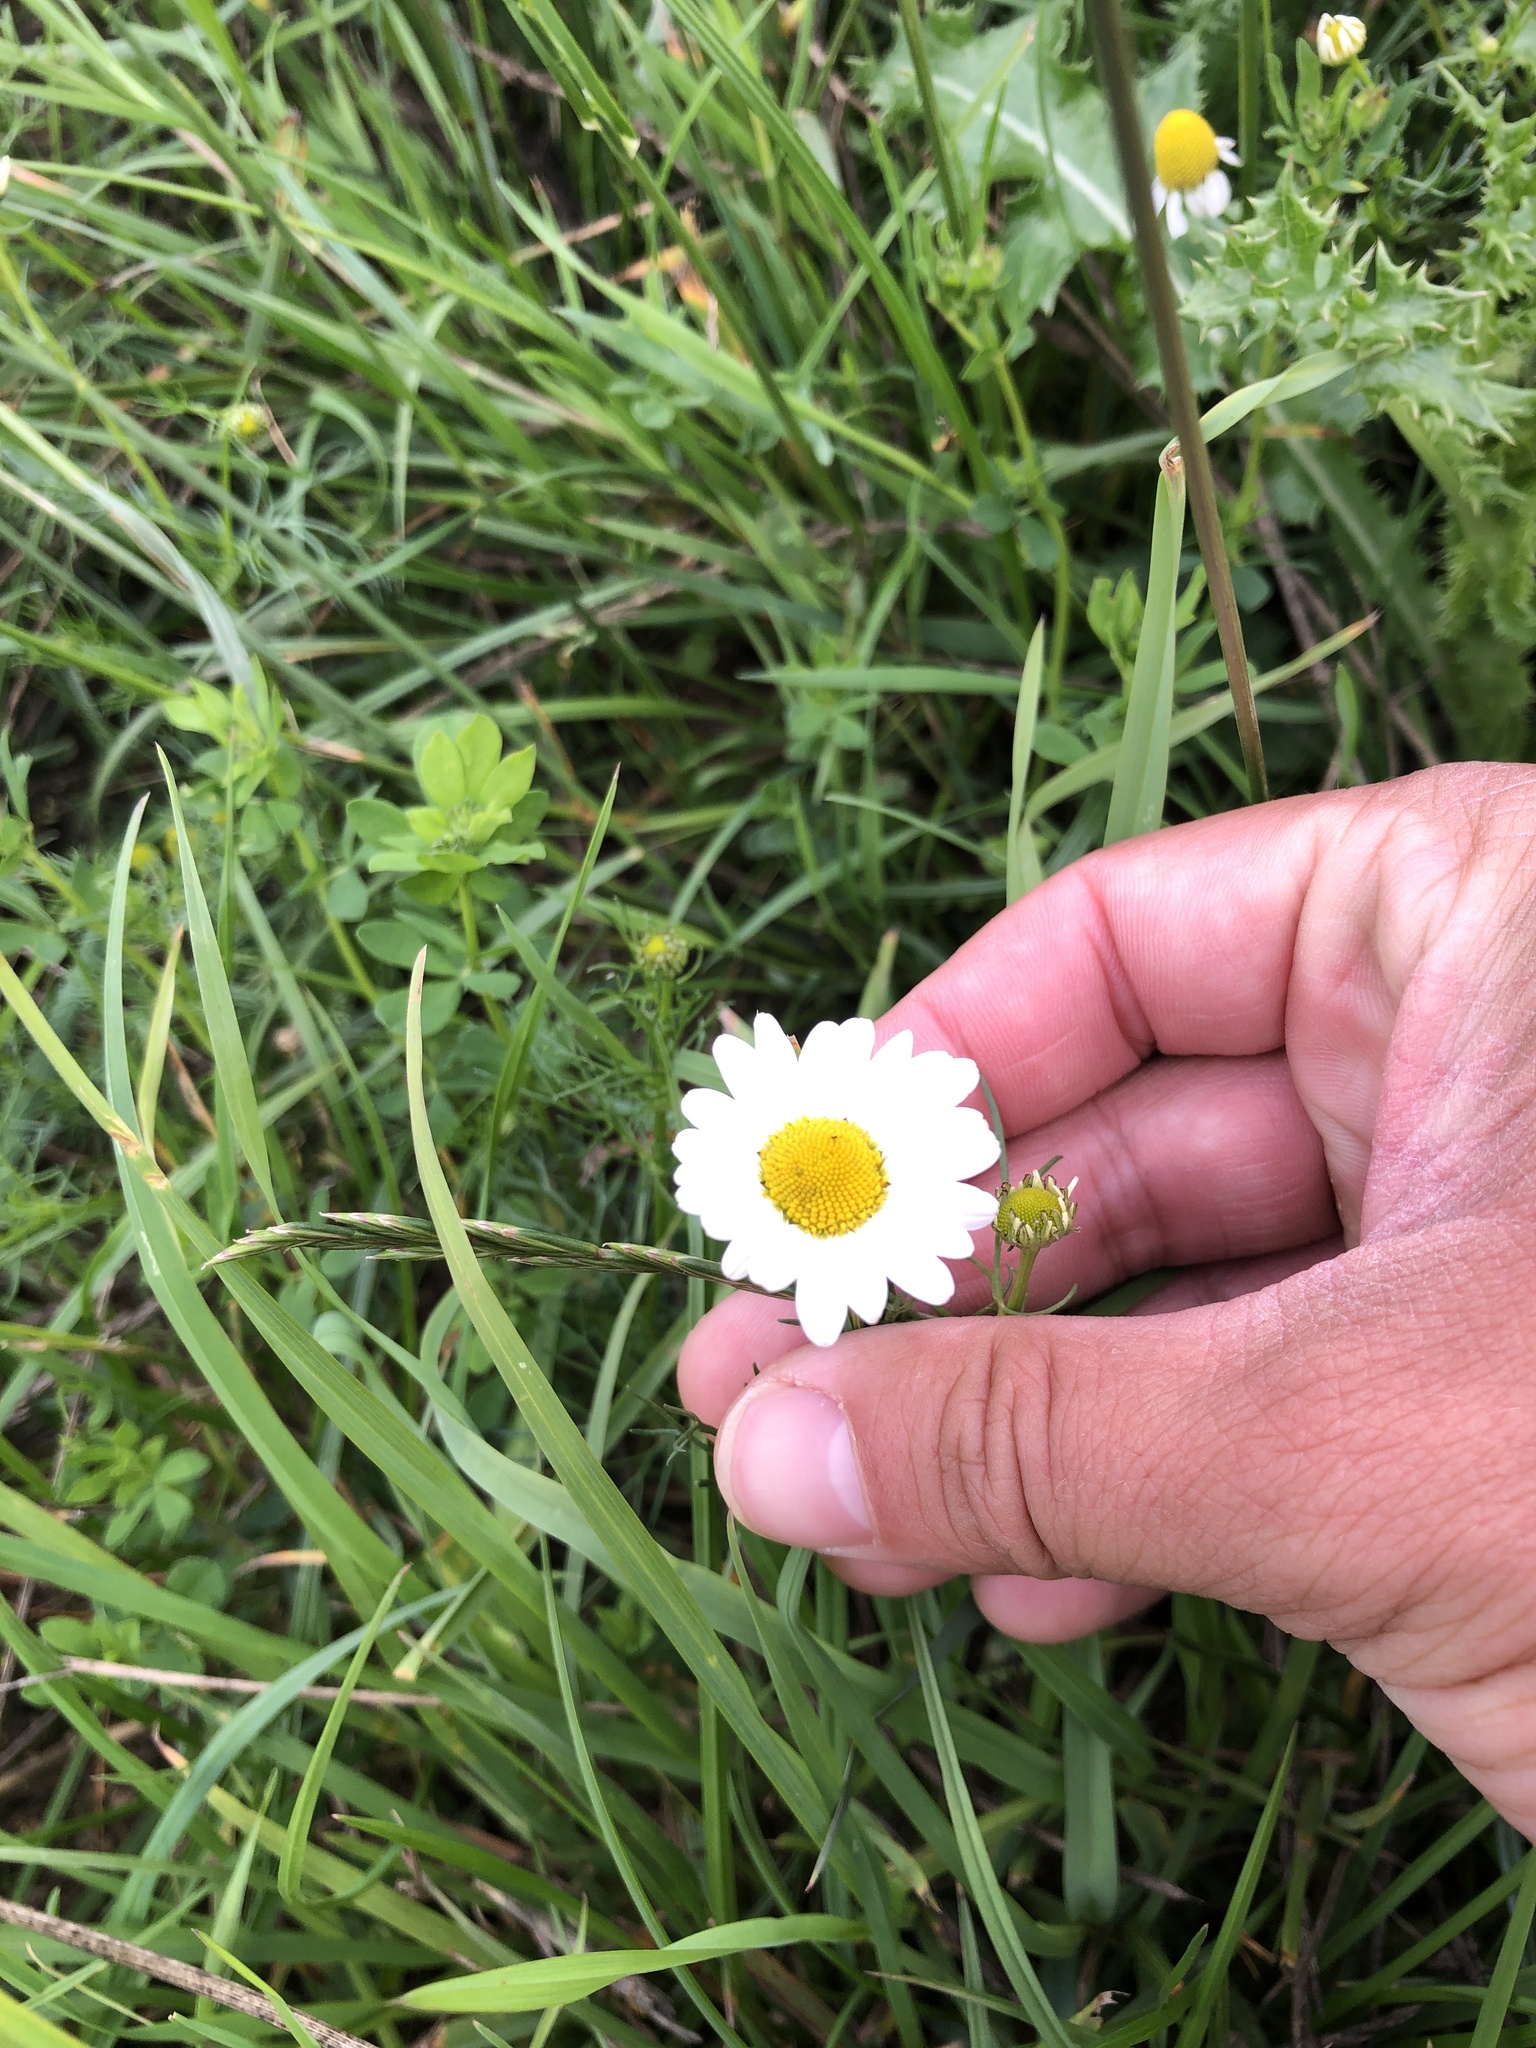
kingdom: Plantae
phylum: Tracheophyta
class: Magnoliopsida
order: Asterales
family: Asteraceae
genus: Tripleurospermum
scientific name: Tripleurospermum inodorum
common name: Scentless mayweed
